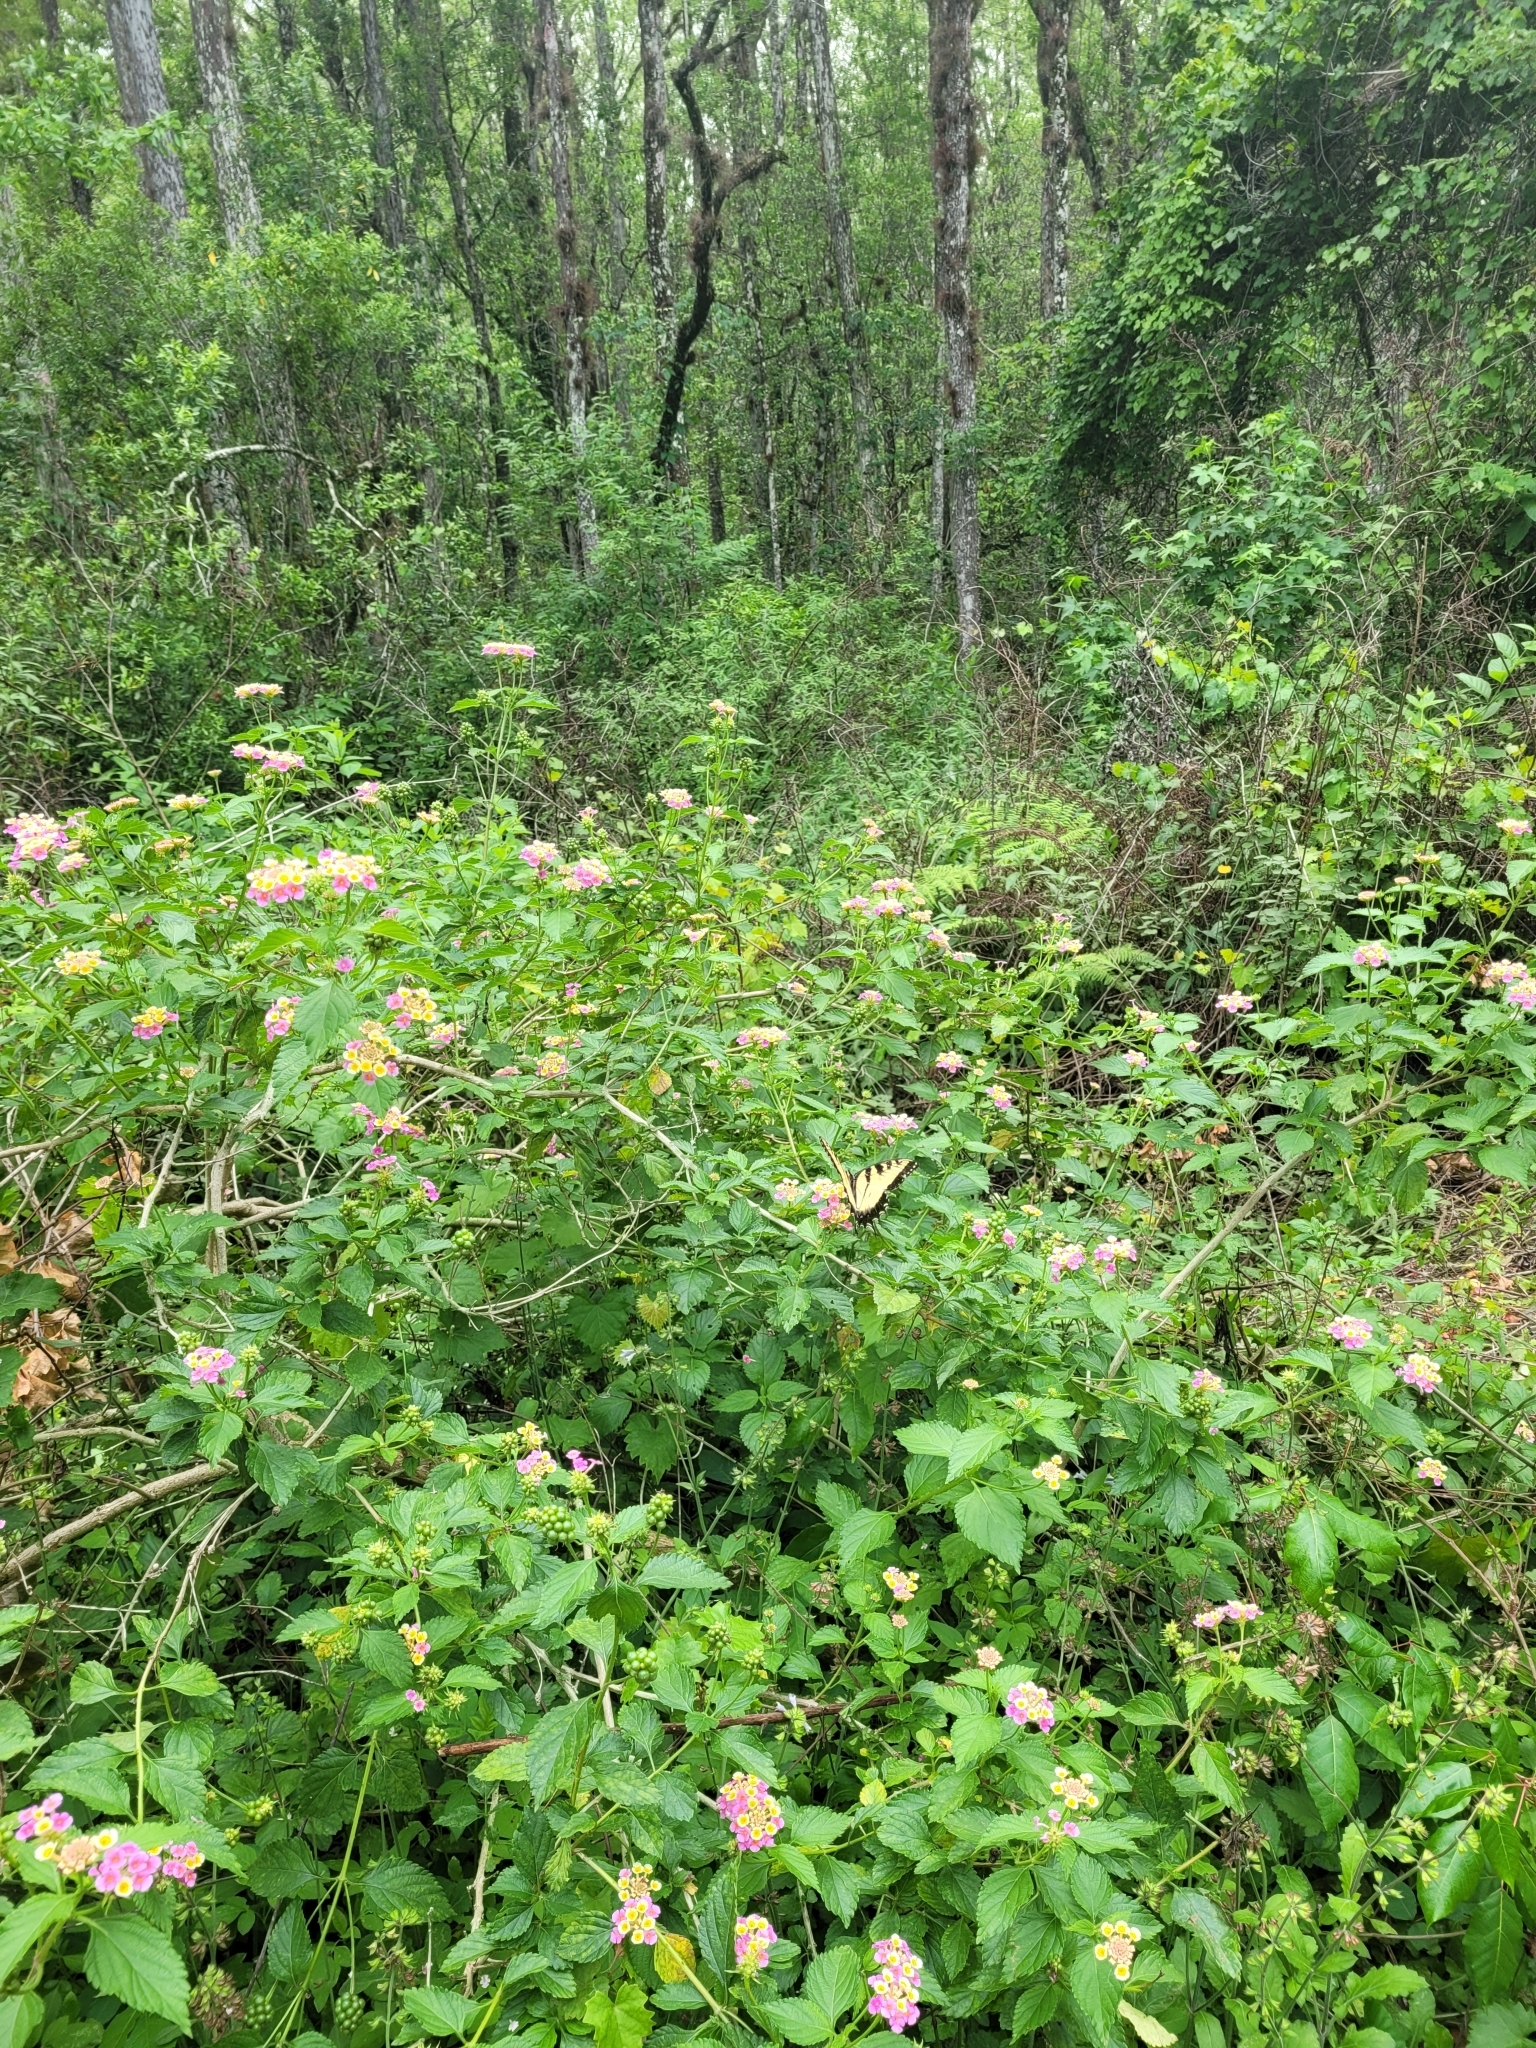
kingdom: Plantae
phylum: Tracheophyta
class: Magnoliopsida
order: Lamiales
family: Verbenaceae
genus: Lantana
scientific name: Lantana strigocamara
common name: Lantana
